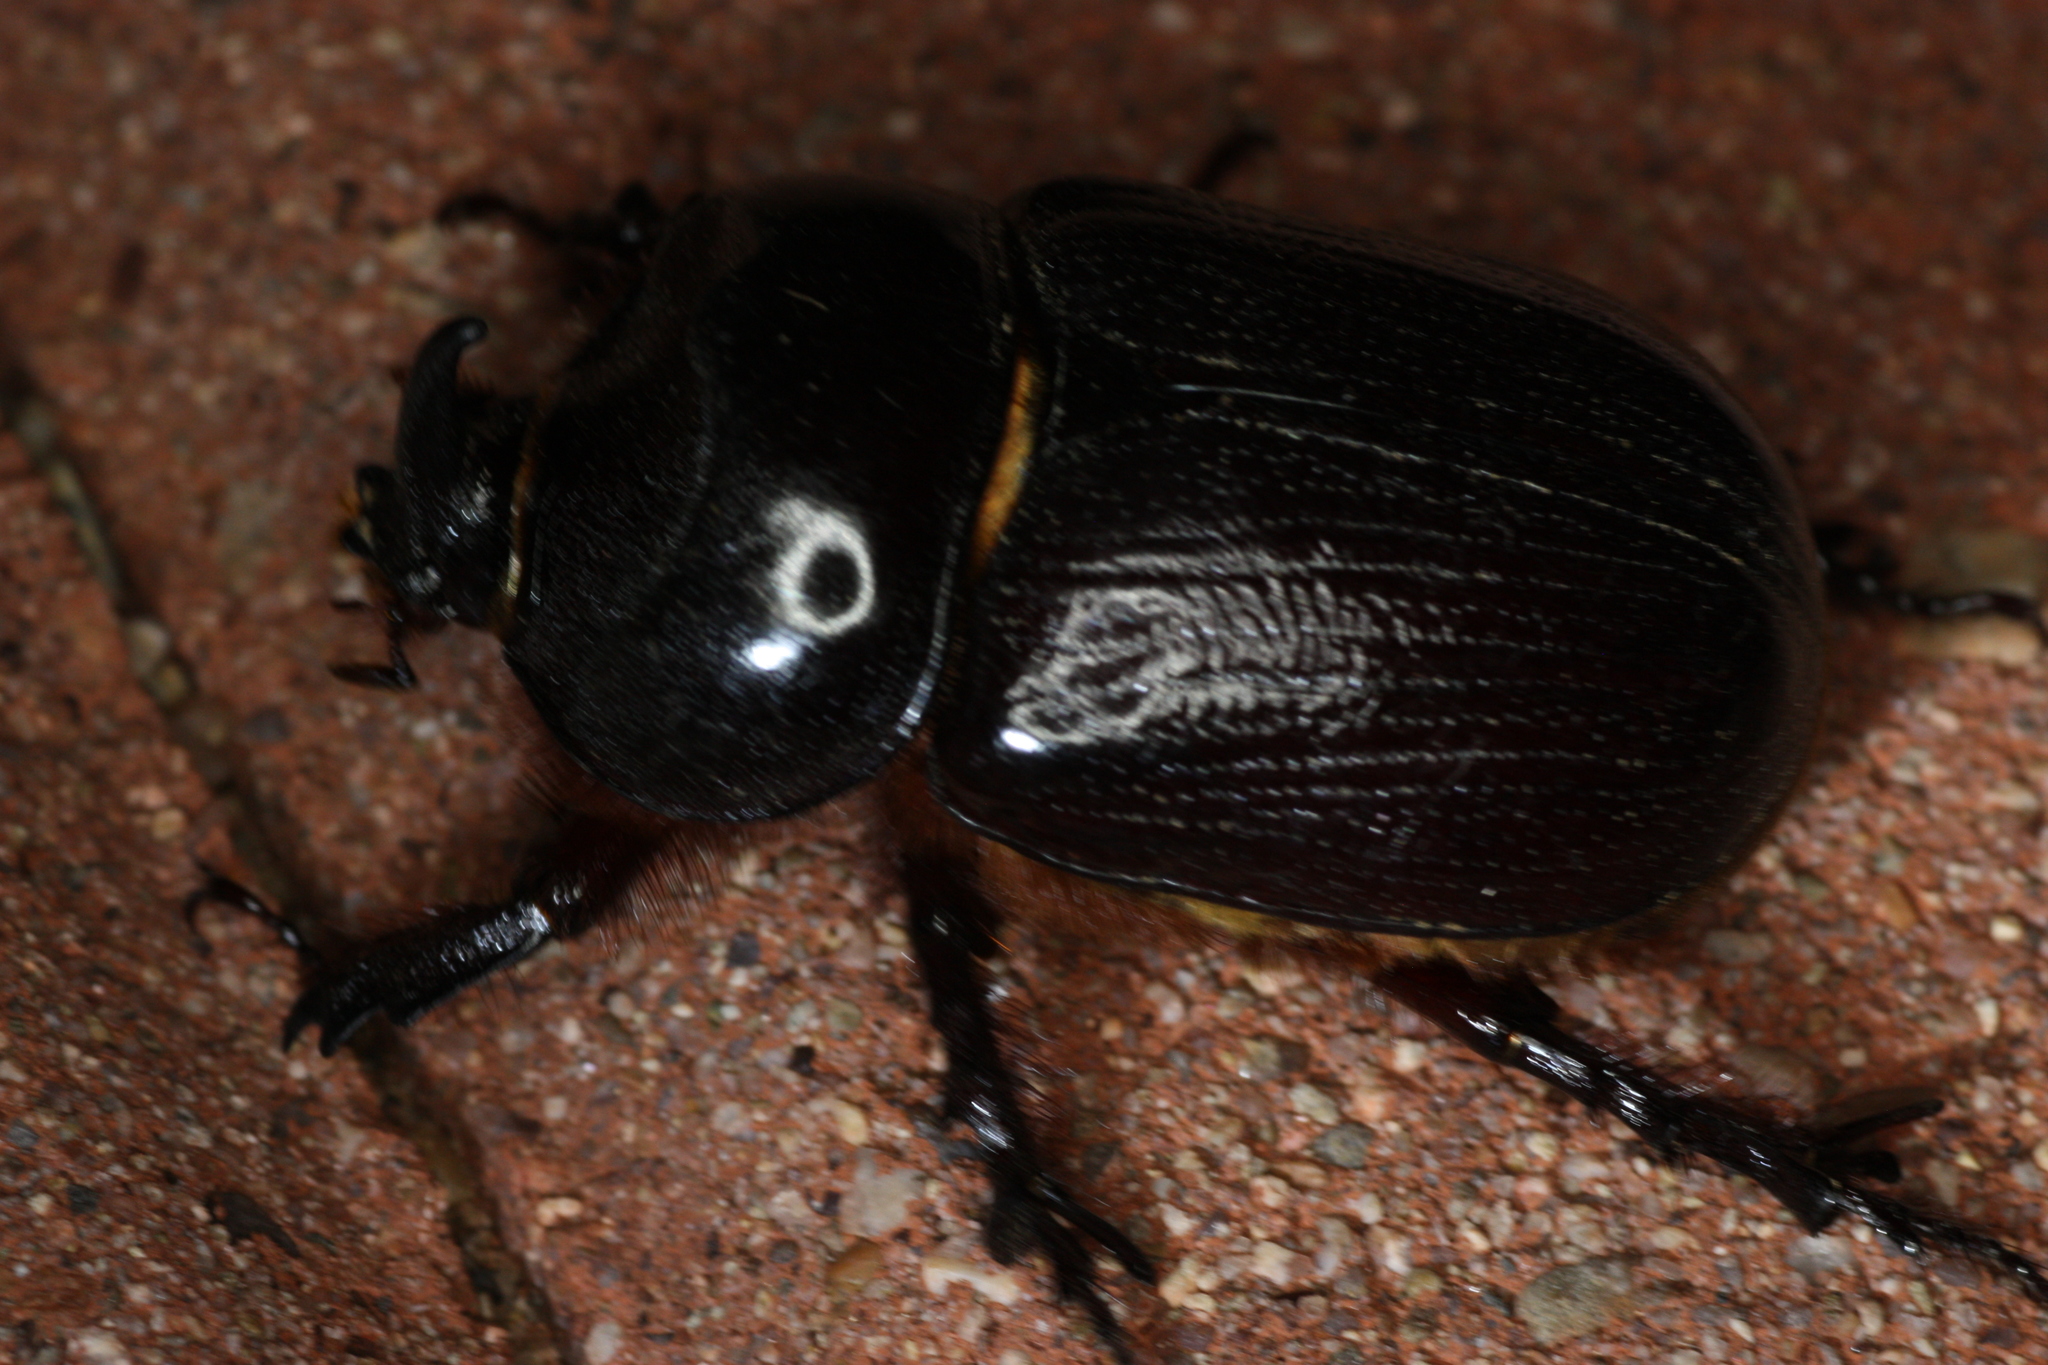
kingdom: Animalia
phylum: Arthropoda
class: Insecta
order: Coleoptera
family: Scarabaeidae
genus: Xyloryctes
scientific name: Xyloryctes thestalus
